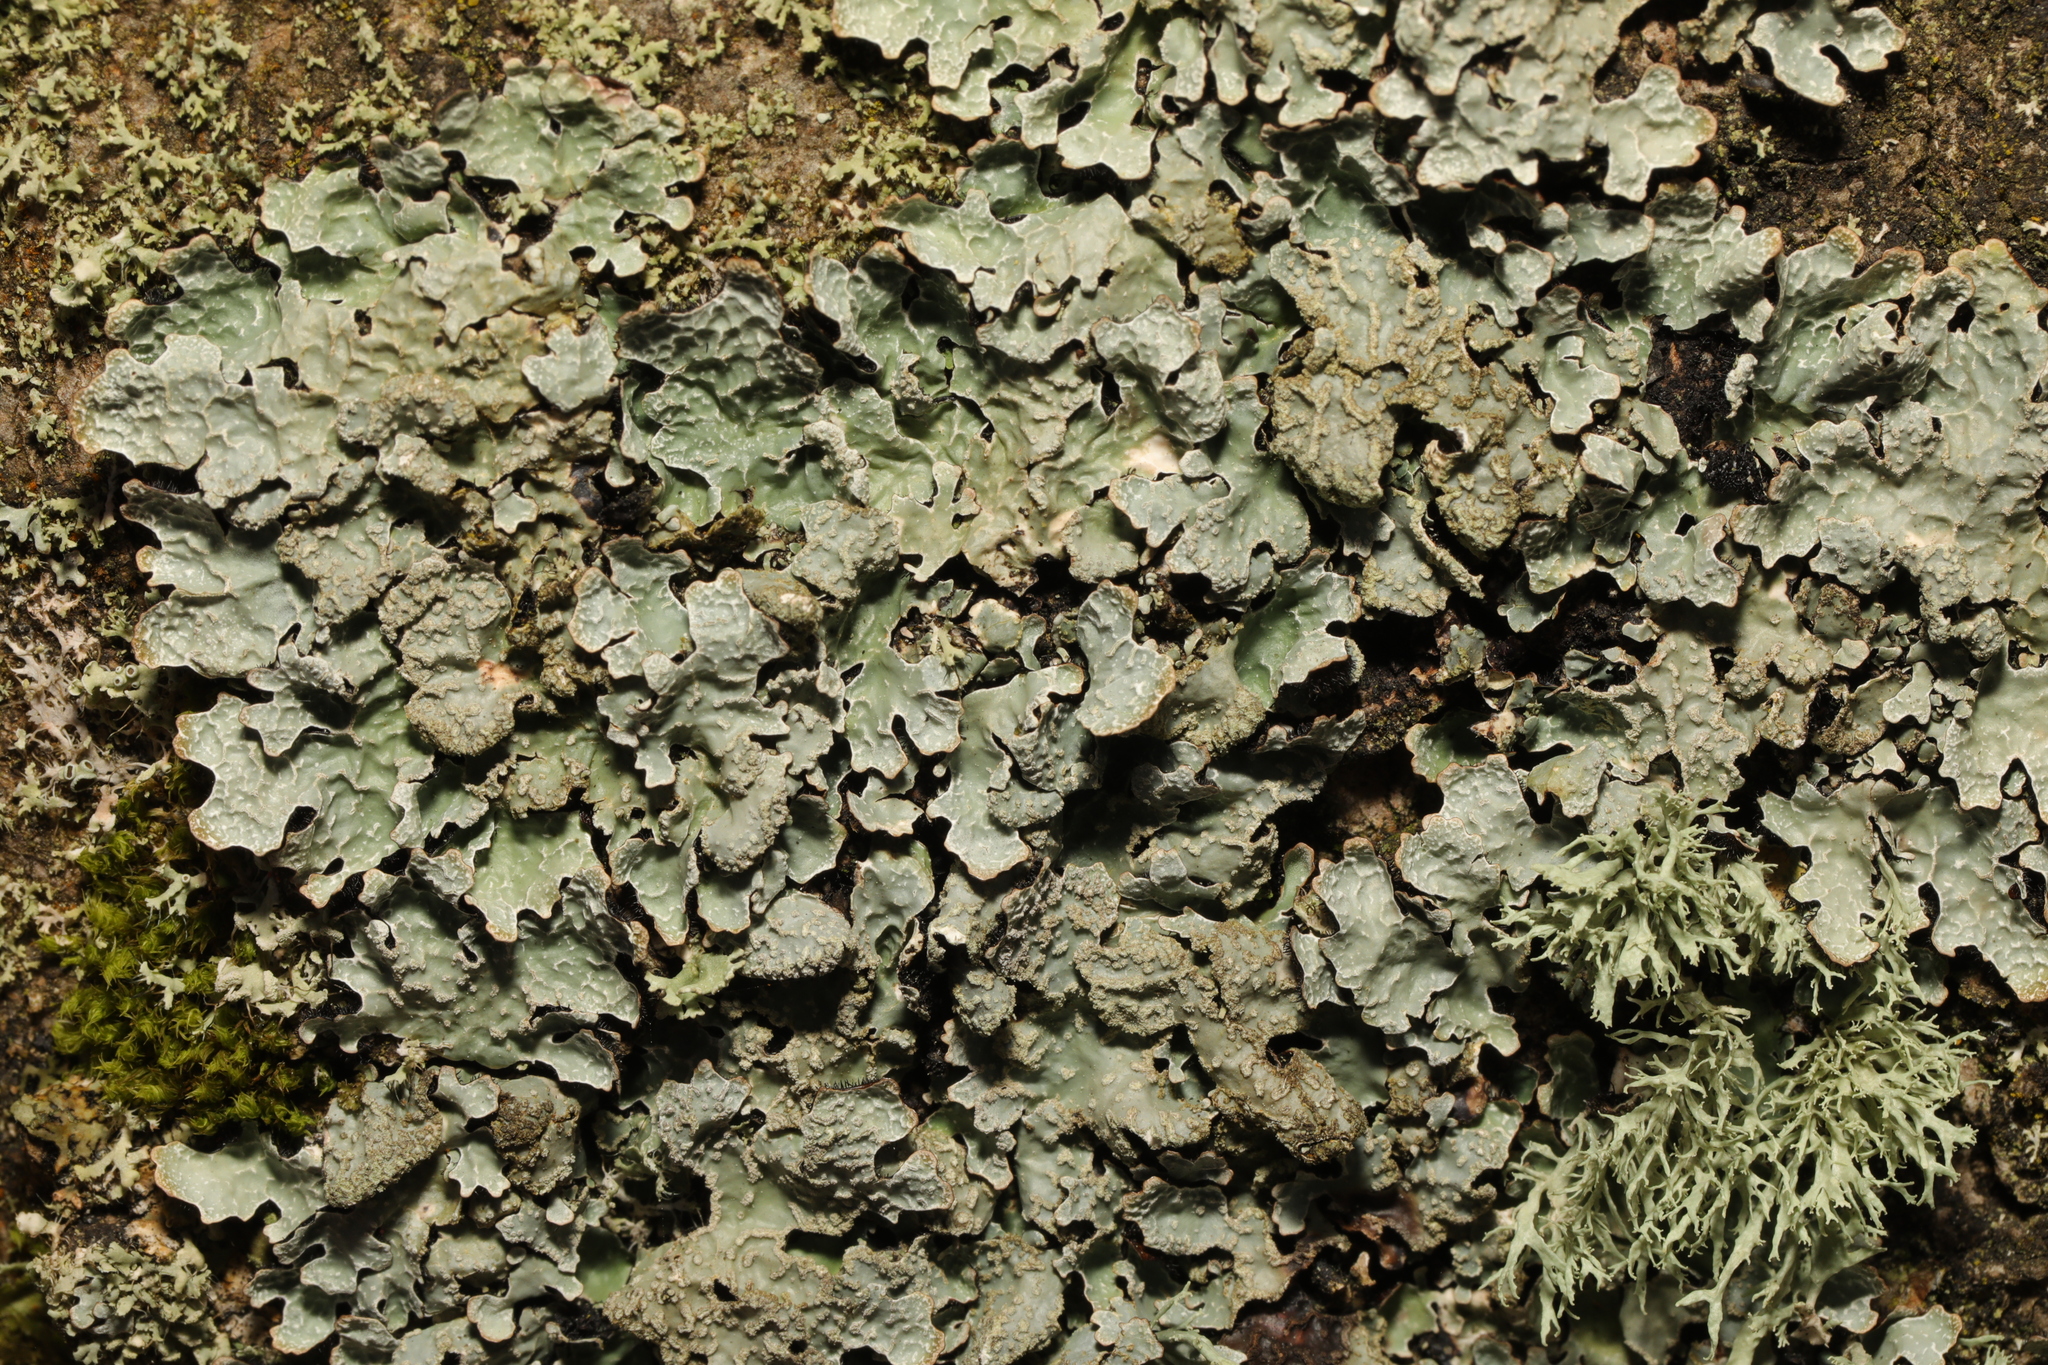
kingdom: Fungi
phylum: Ascomycota
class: Lecanoromycetes
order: Lecanorales
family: Parmeliaceae
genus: Parmelia
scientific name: Parmelia sulcata
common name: Netted shield lichen
